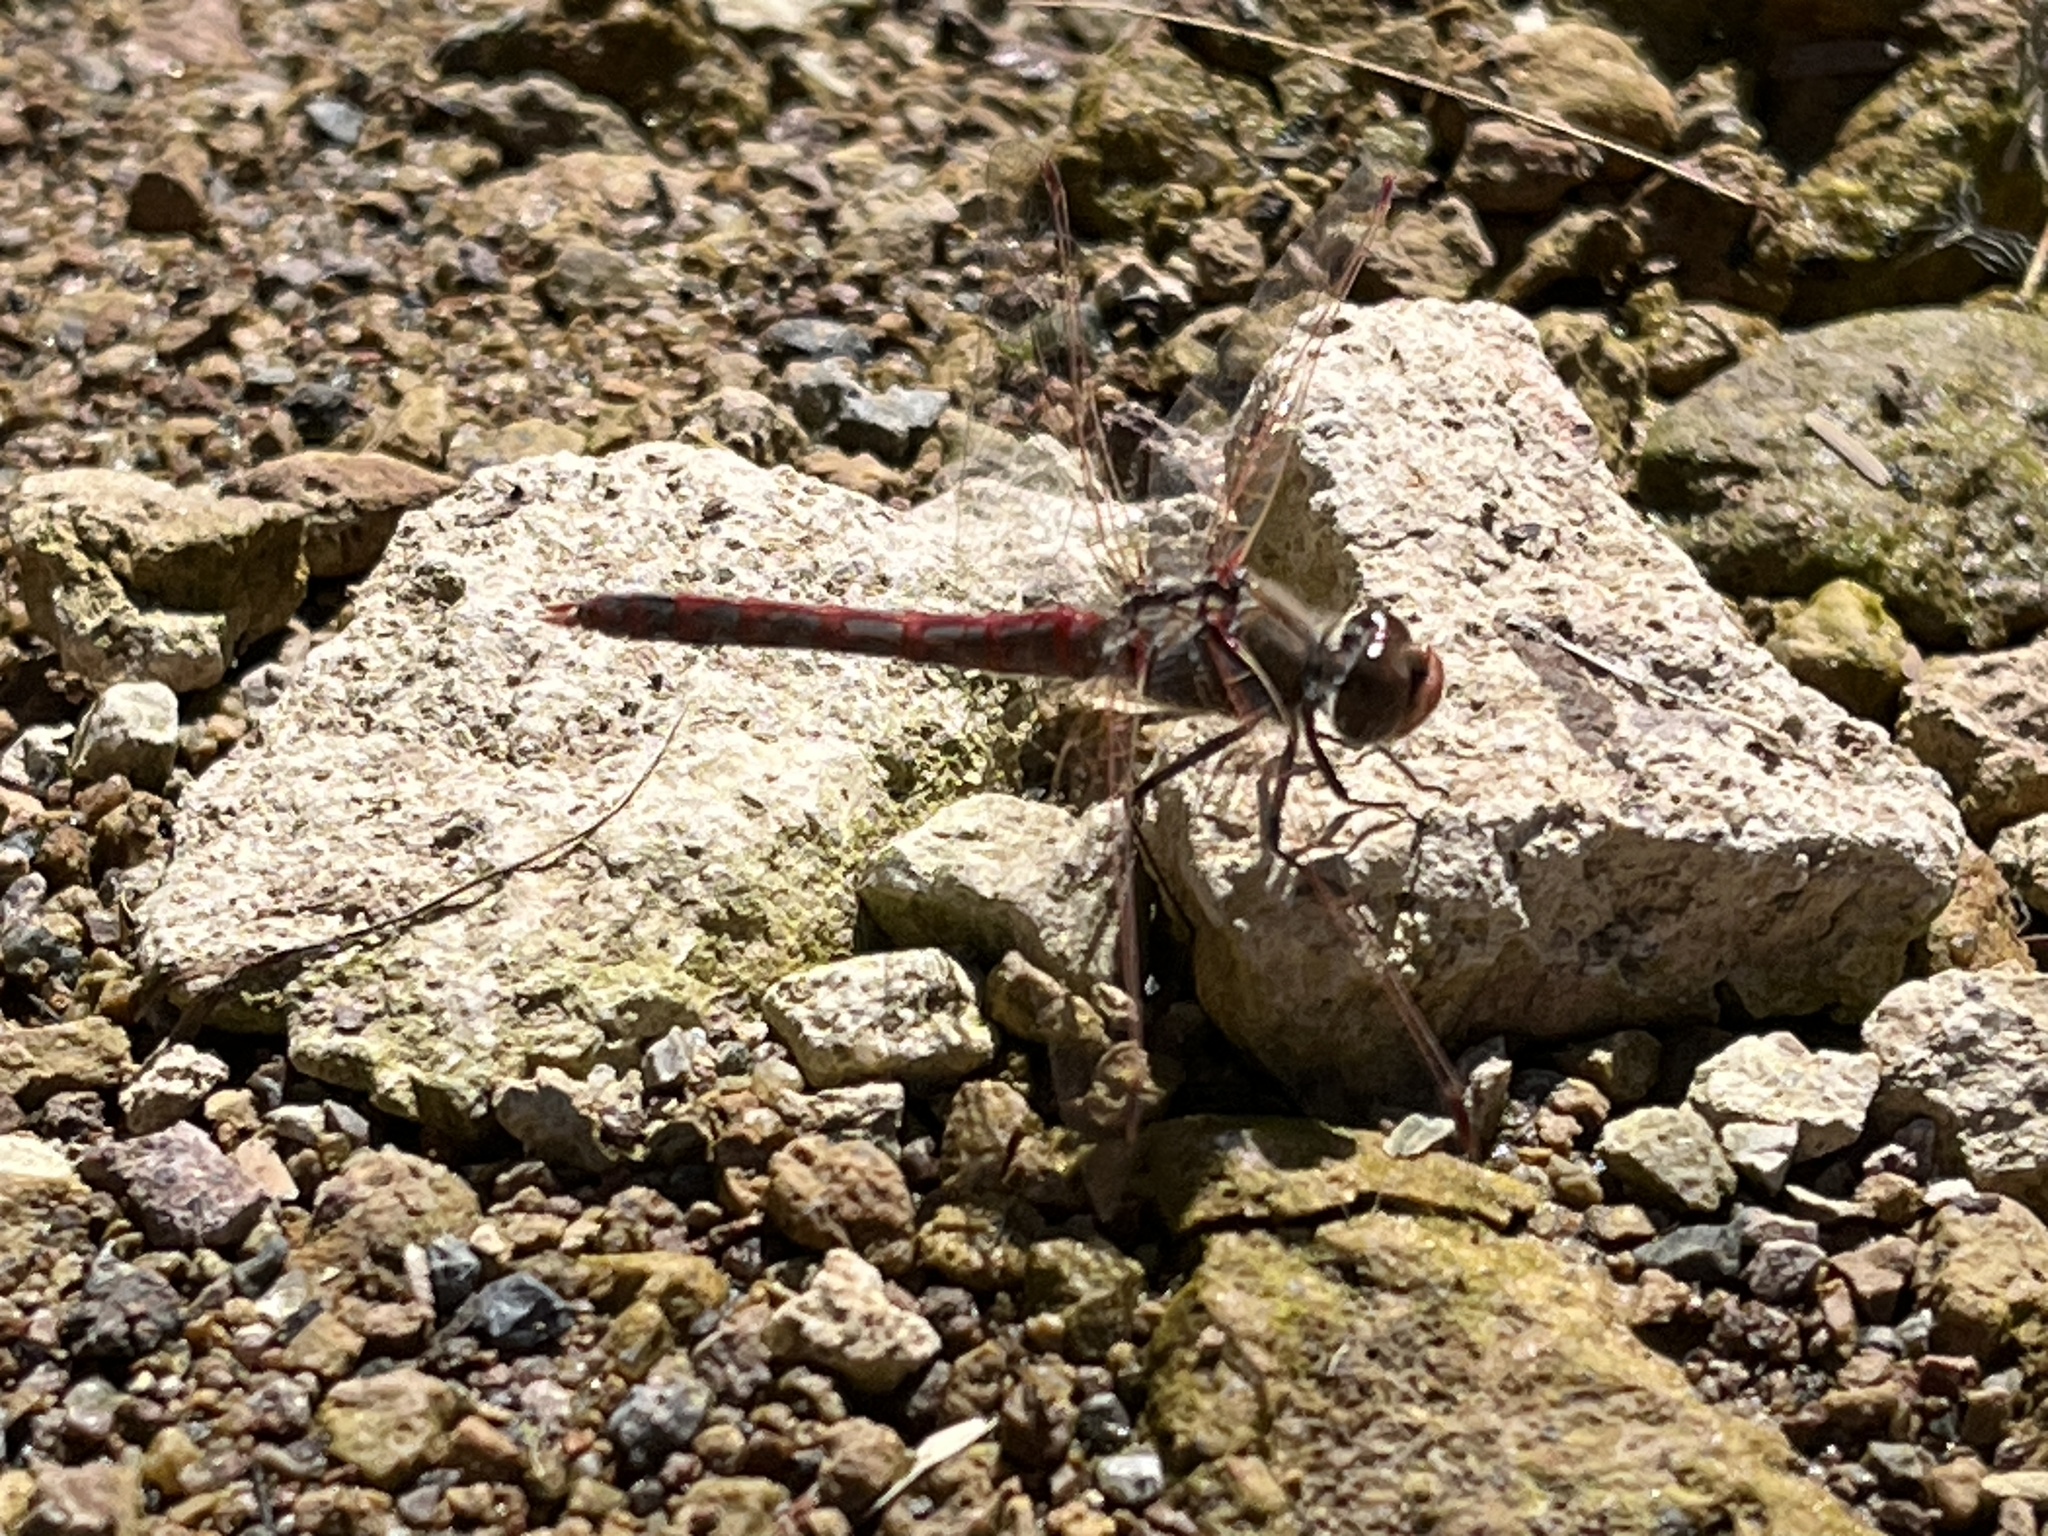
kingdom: Animalia
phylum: Arthropoda
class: Insecta
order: Odonata
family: Libellulidae
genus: Sympetrum
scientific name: Sympetrum corruptum
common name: Variegated meadowhawk
